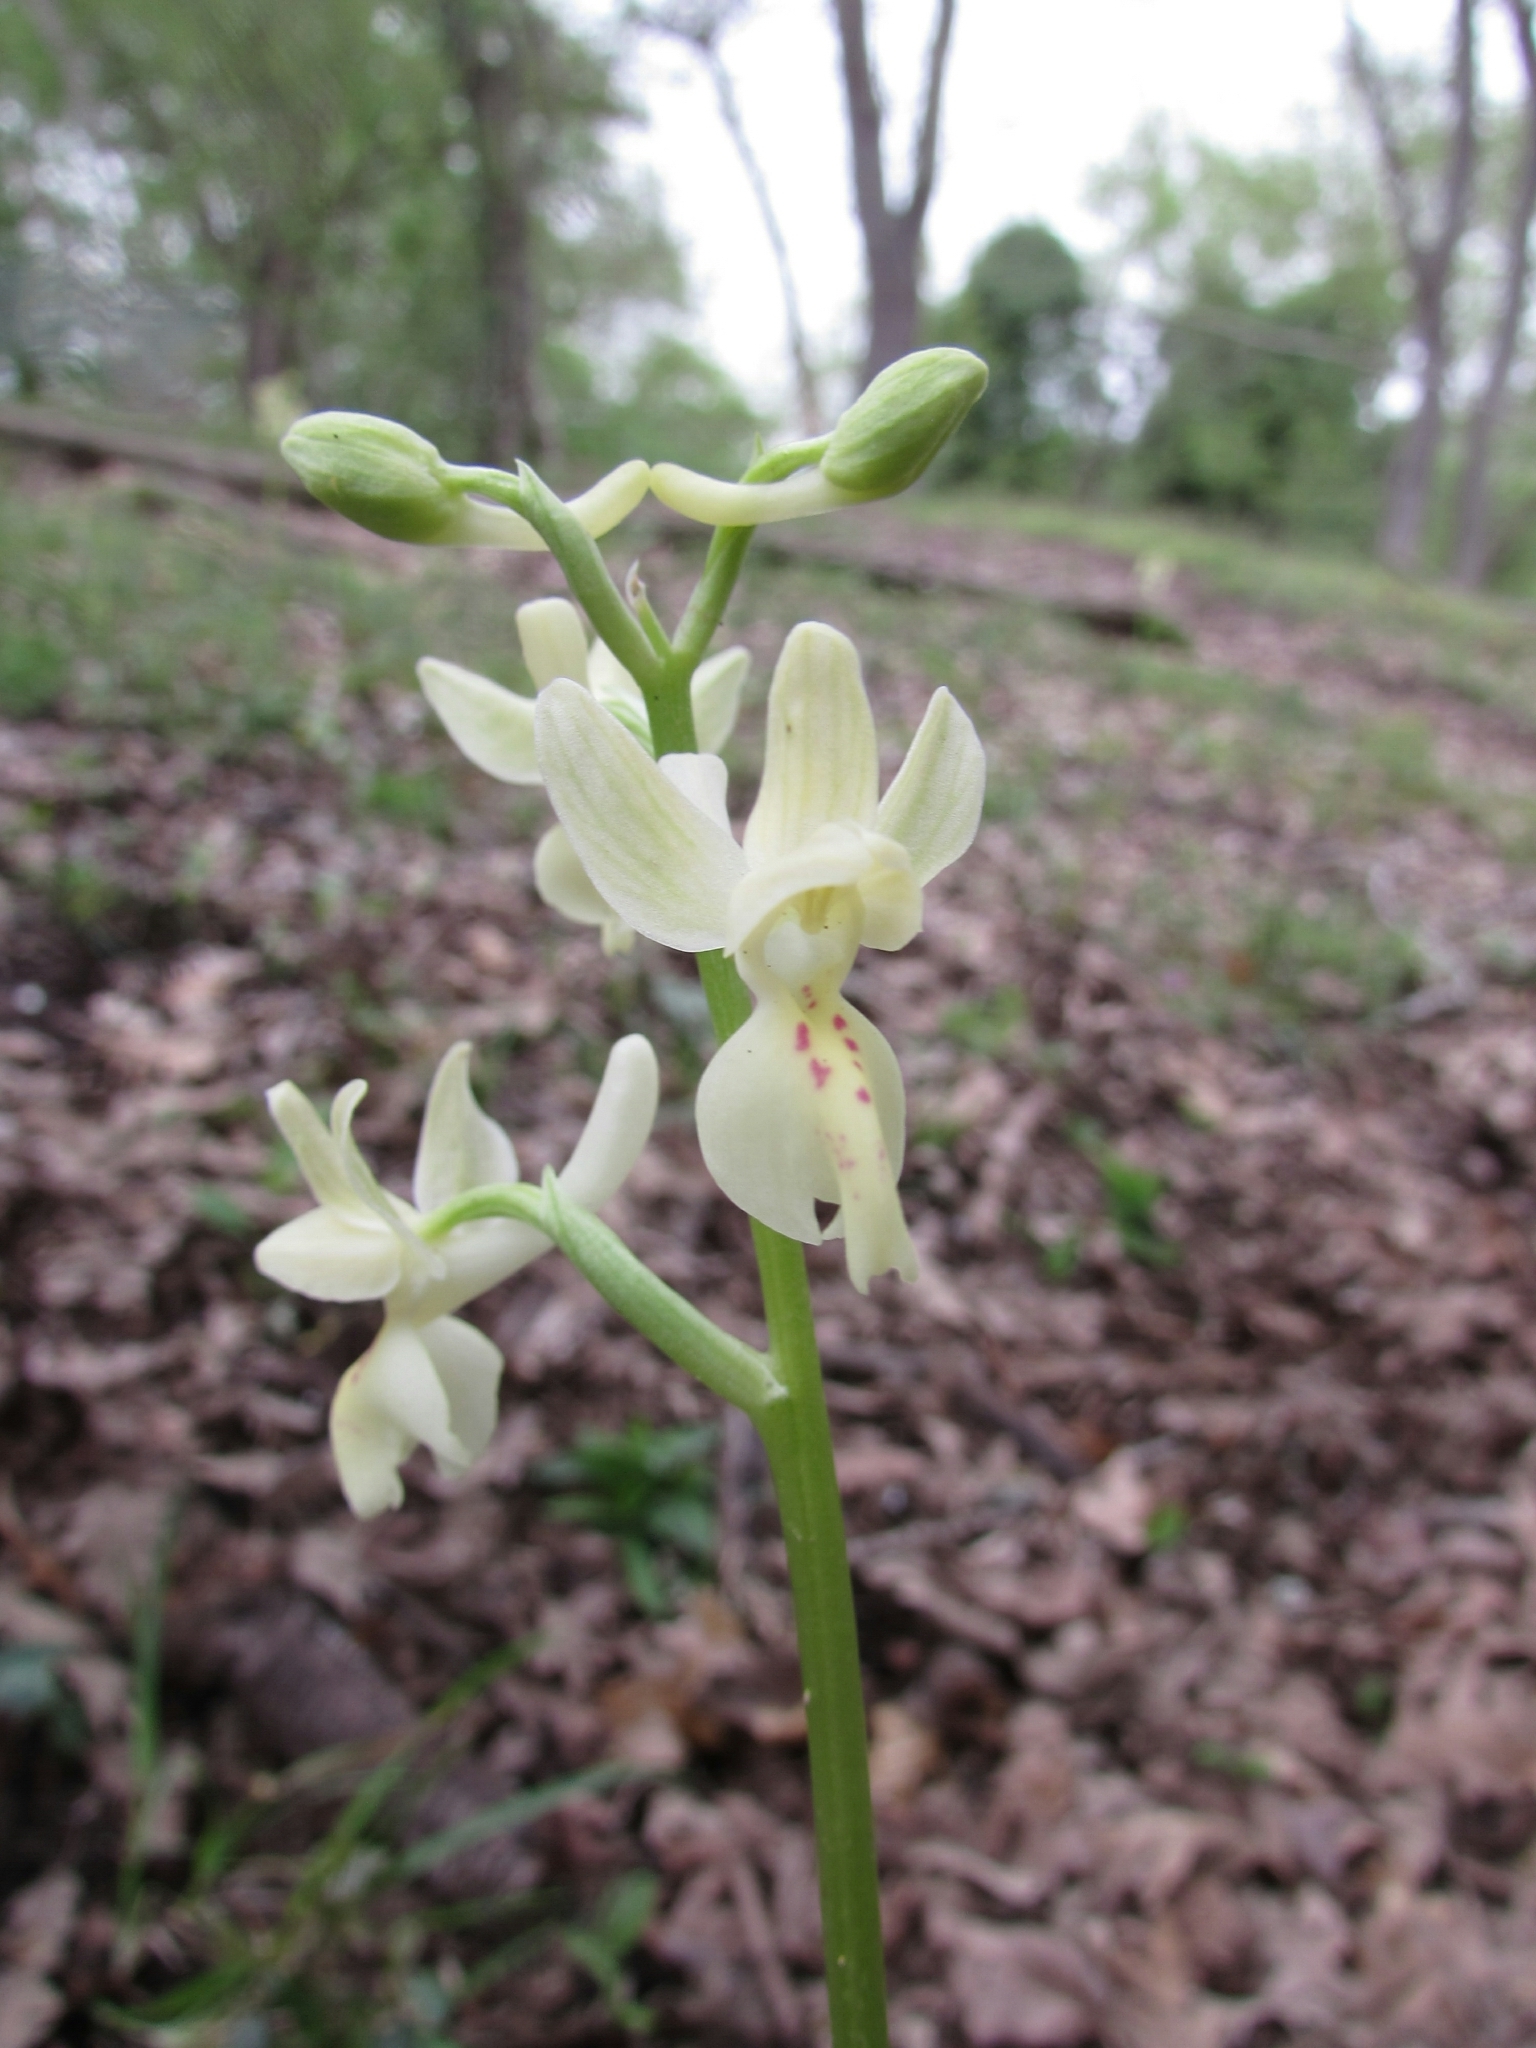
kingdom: Plantae
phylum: Tracheophyta
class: Liliopsida
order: Asparagales
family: Orchidaceae
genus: Orchis
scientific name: Orchis provincialis
